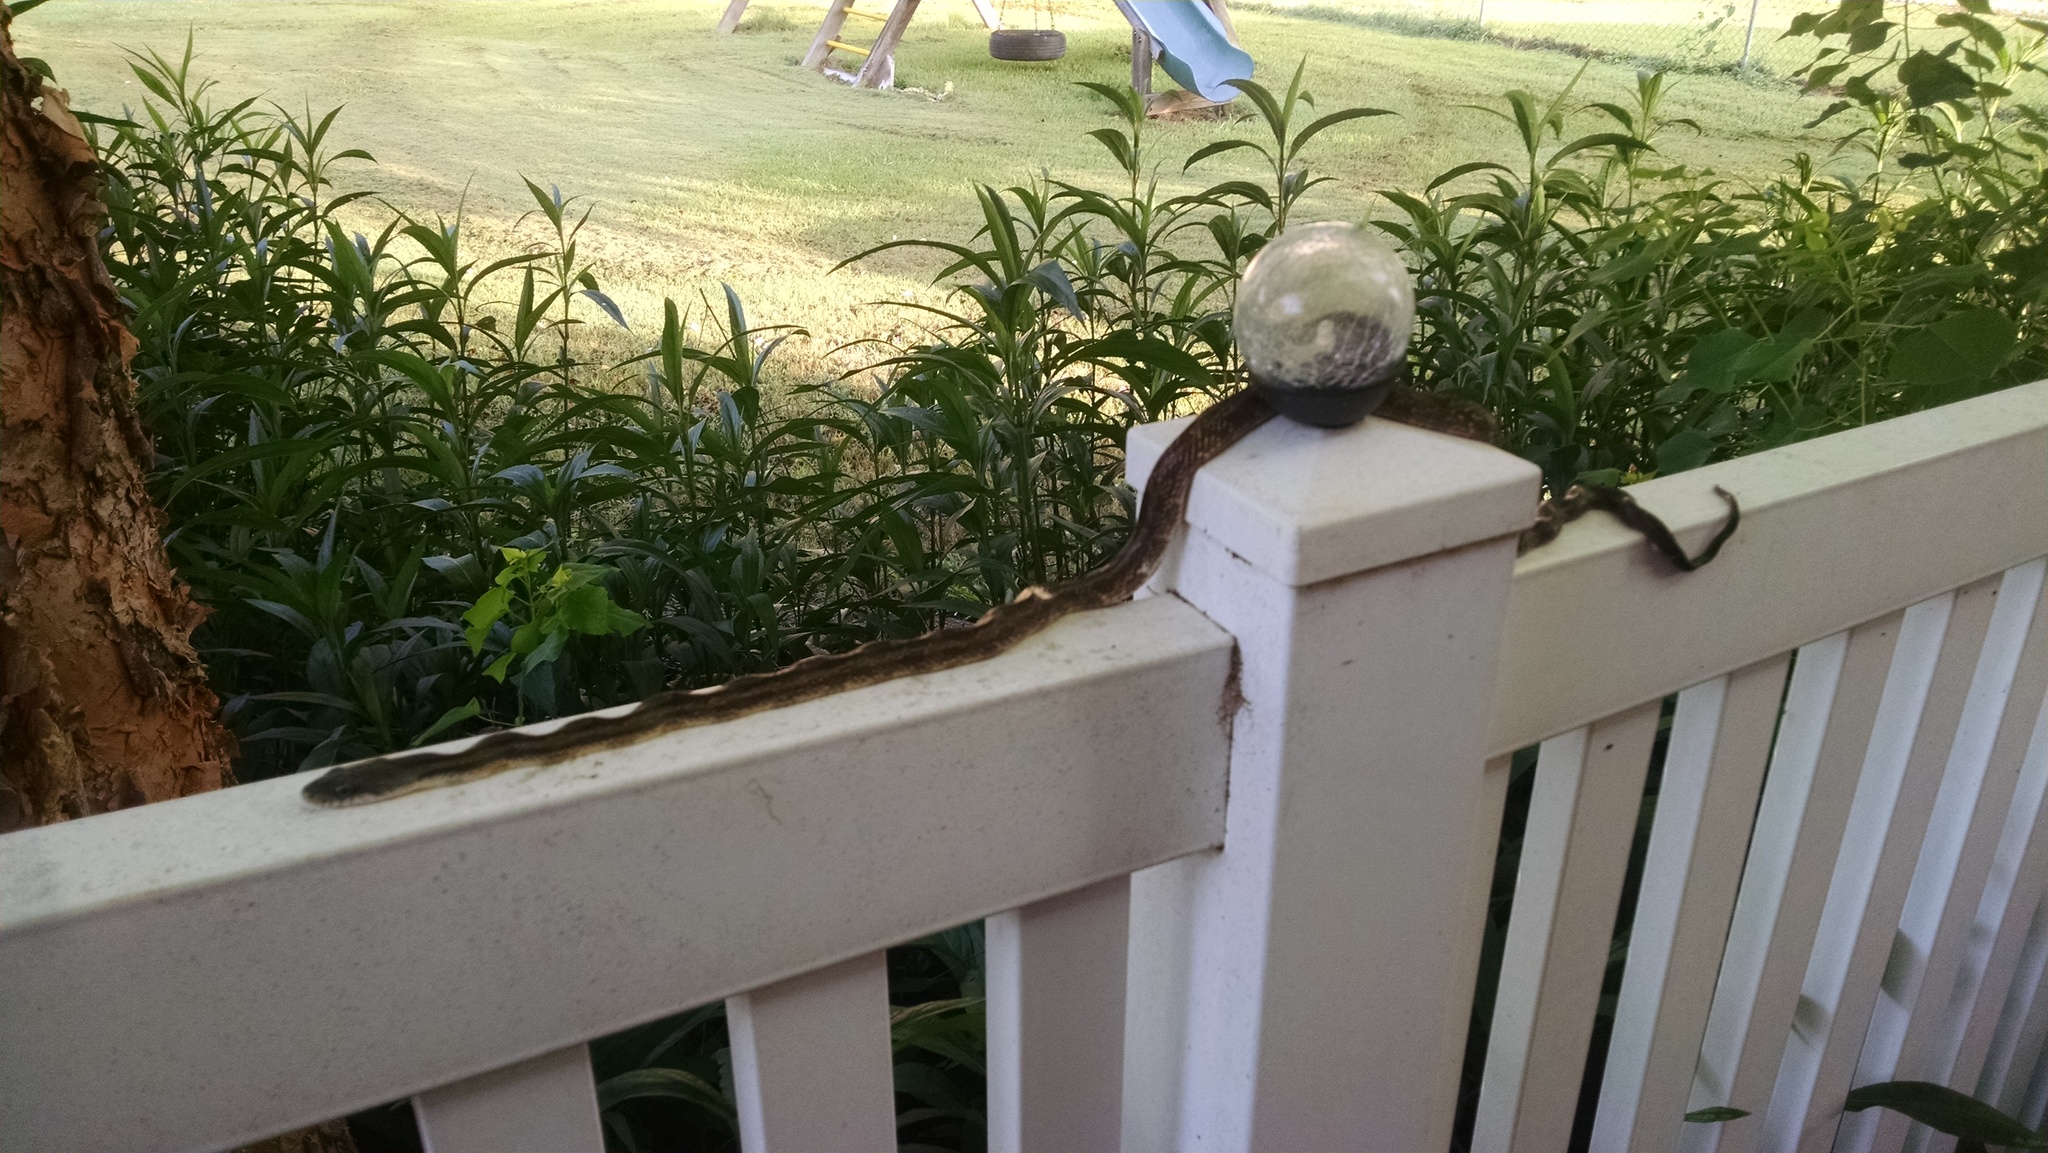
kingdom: Animalia
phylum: Chordata
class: Squamata
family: Colubridae
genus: Pantherophis
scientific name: Pantherophis spiloides
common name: Gray rat snake
